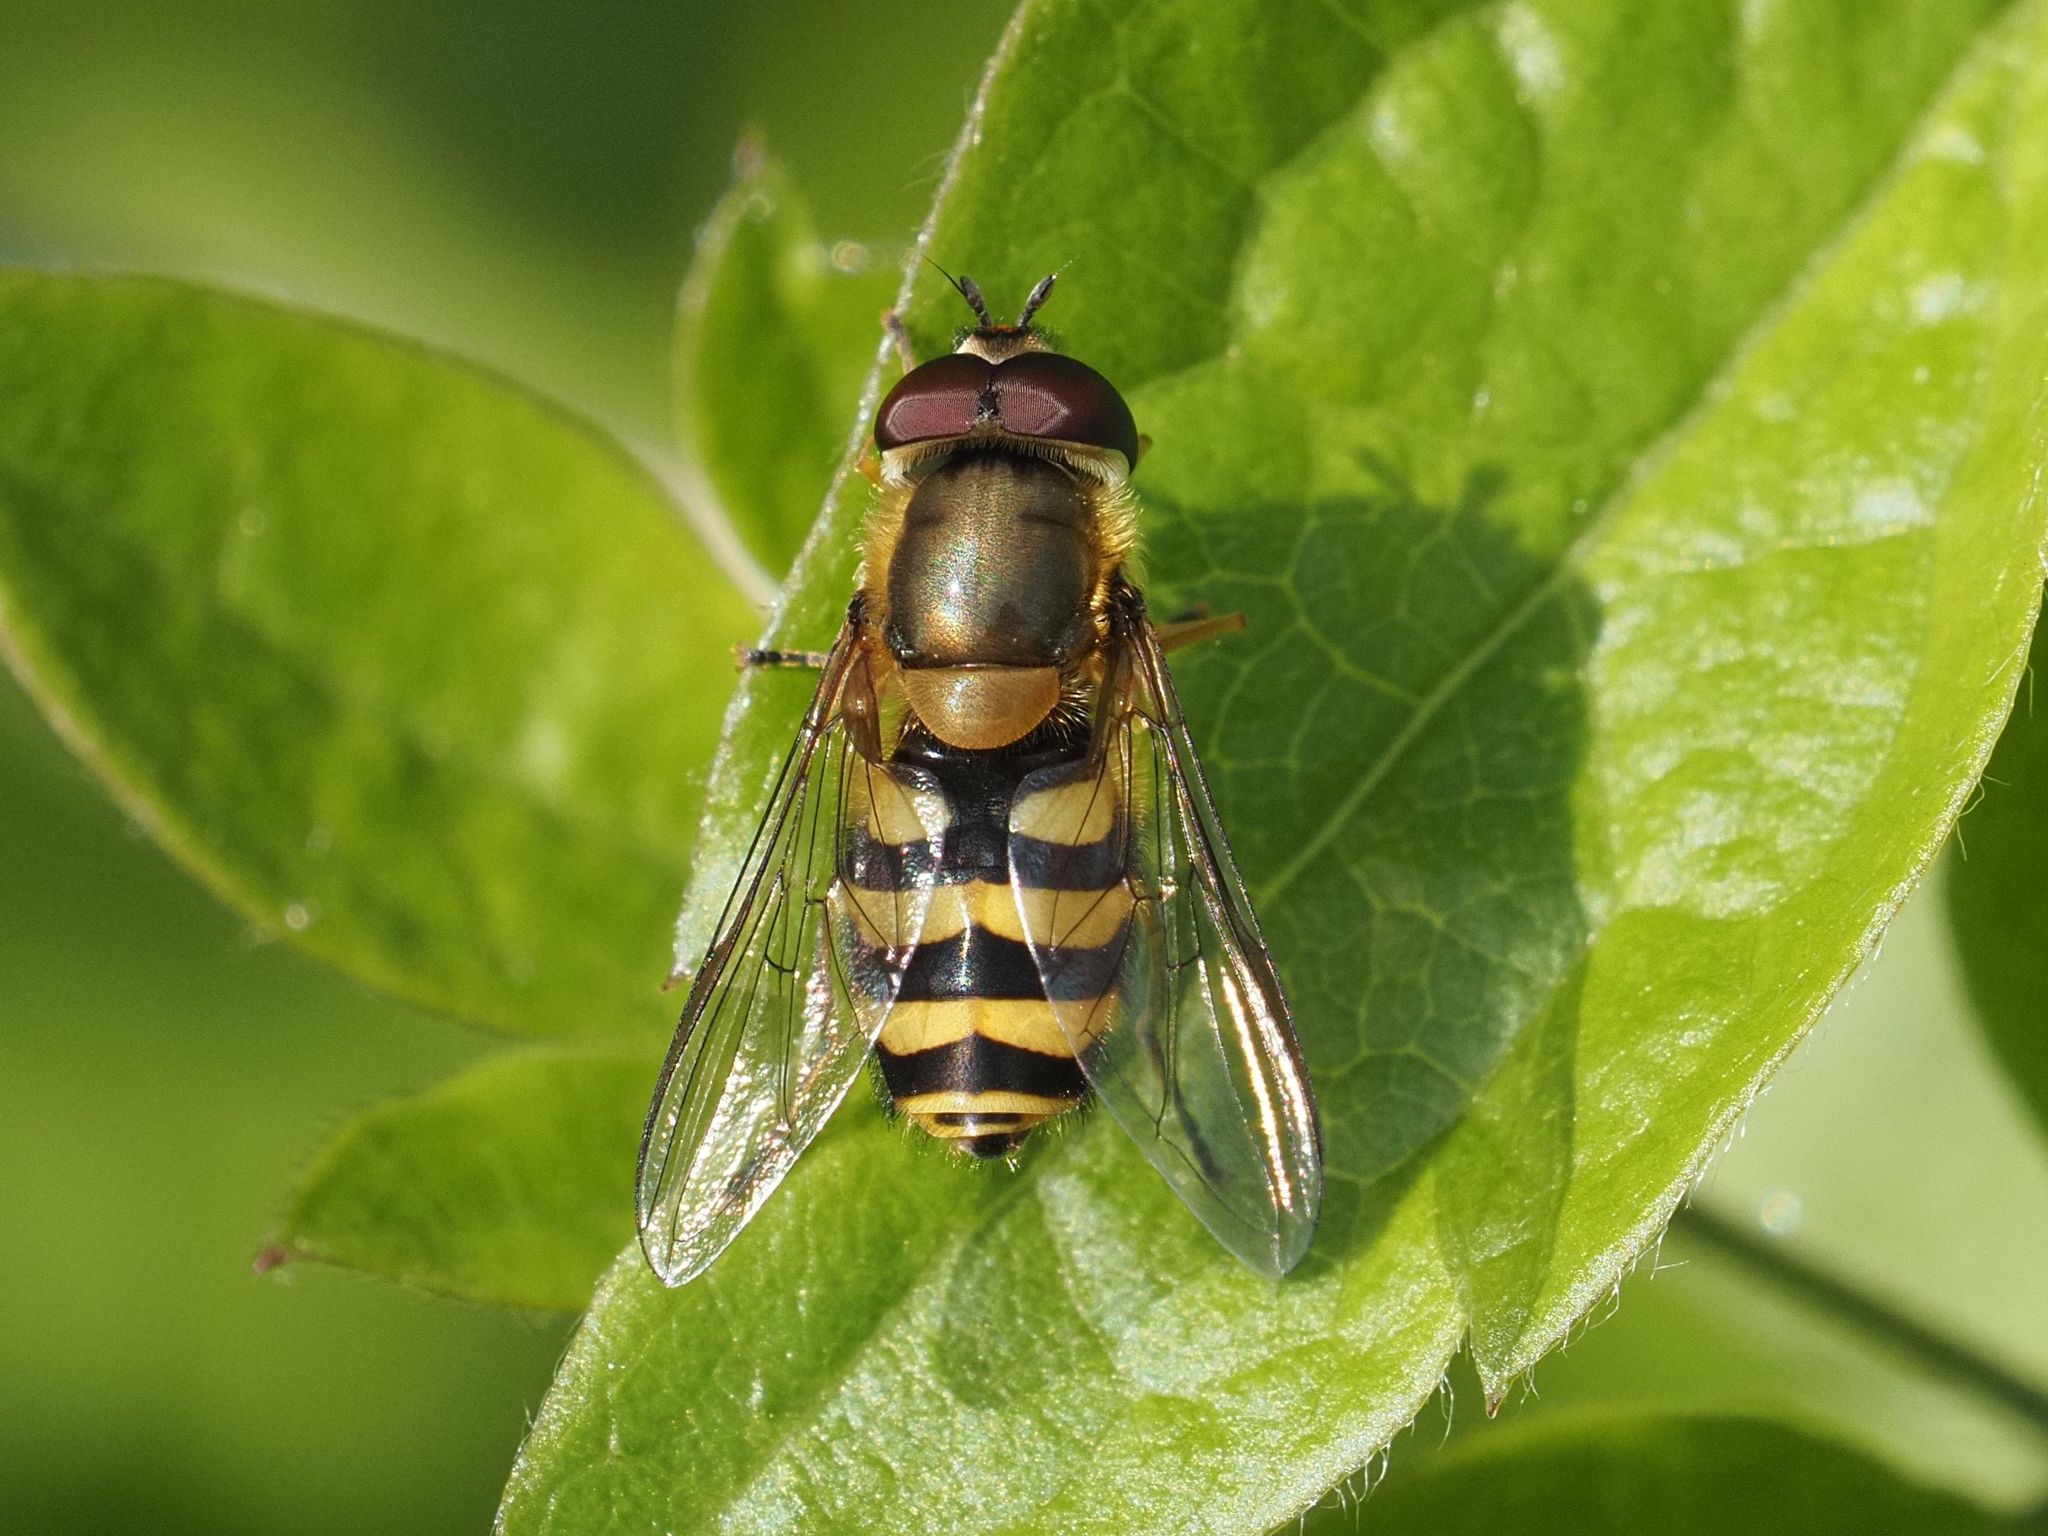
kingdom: Animalia
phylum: Arthropoda
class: Insecta
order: Diptera
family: Syrphidae
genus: Syrphus
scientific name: Syrphus
